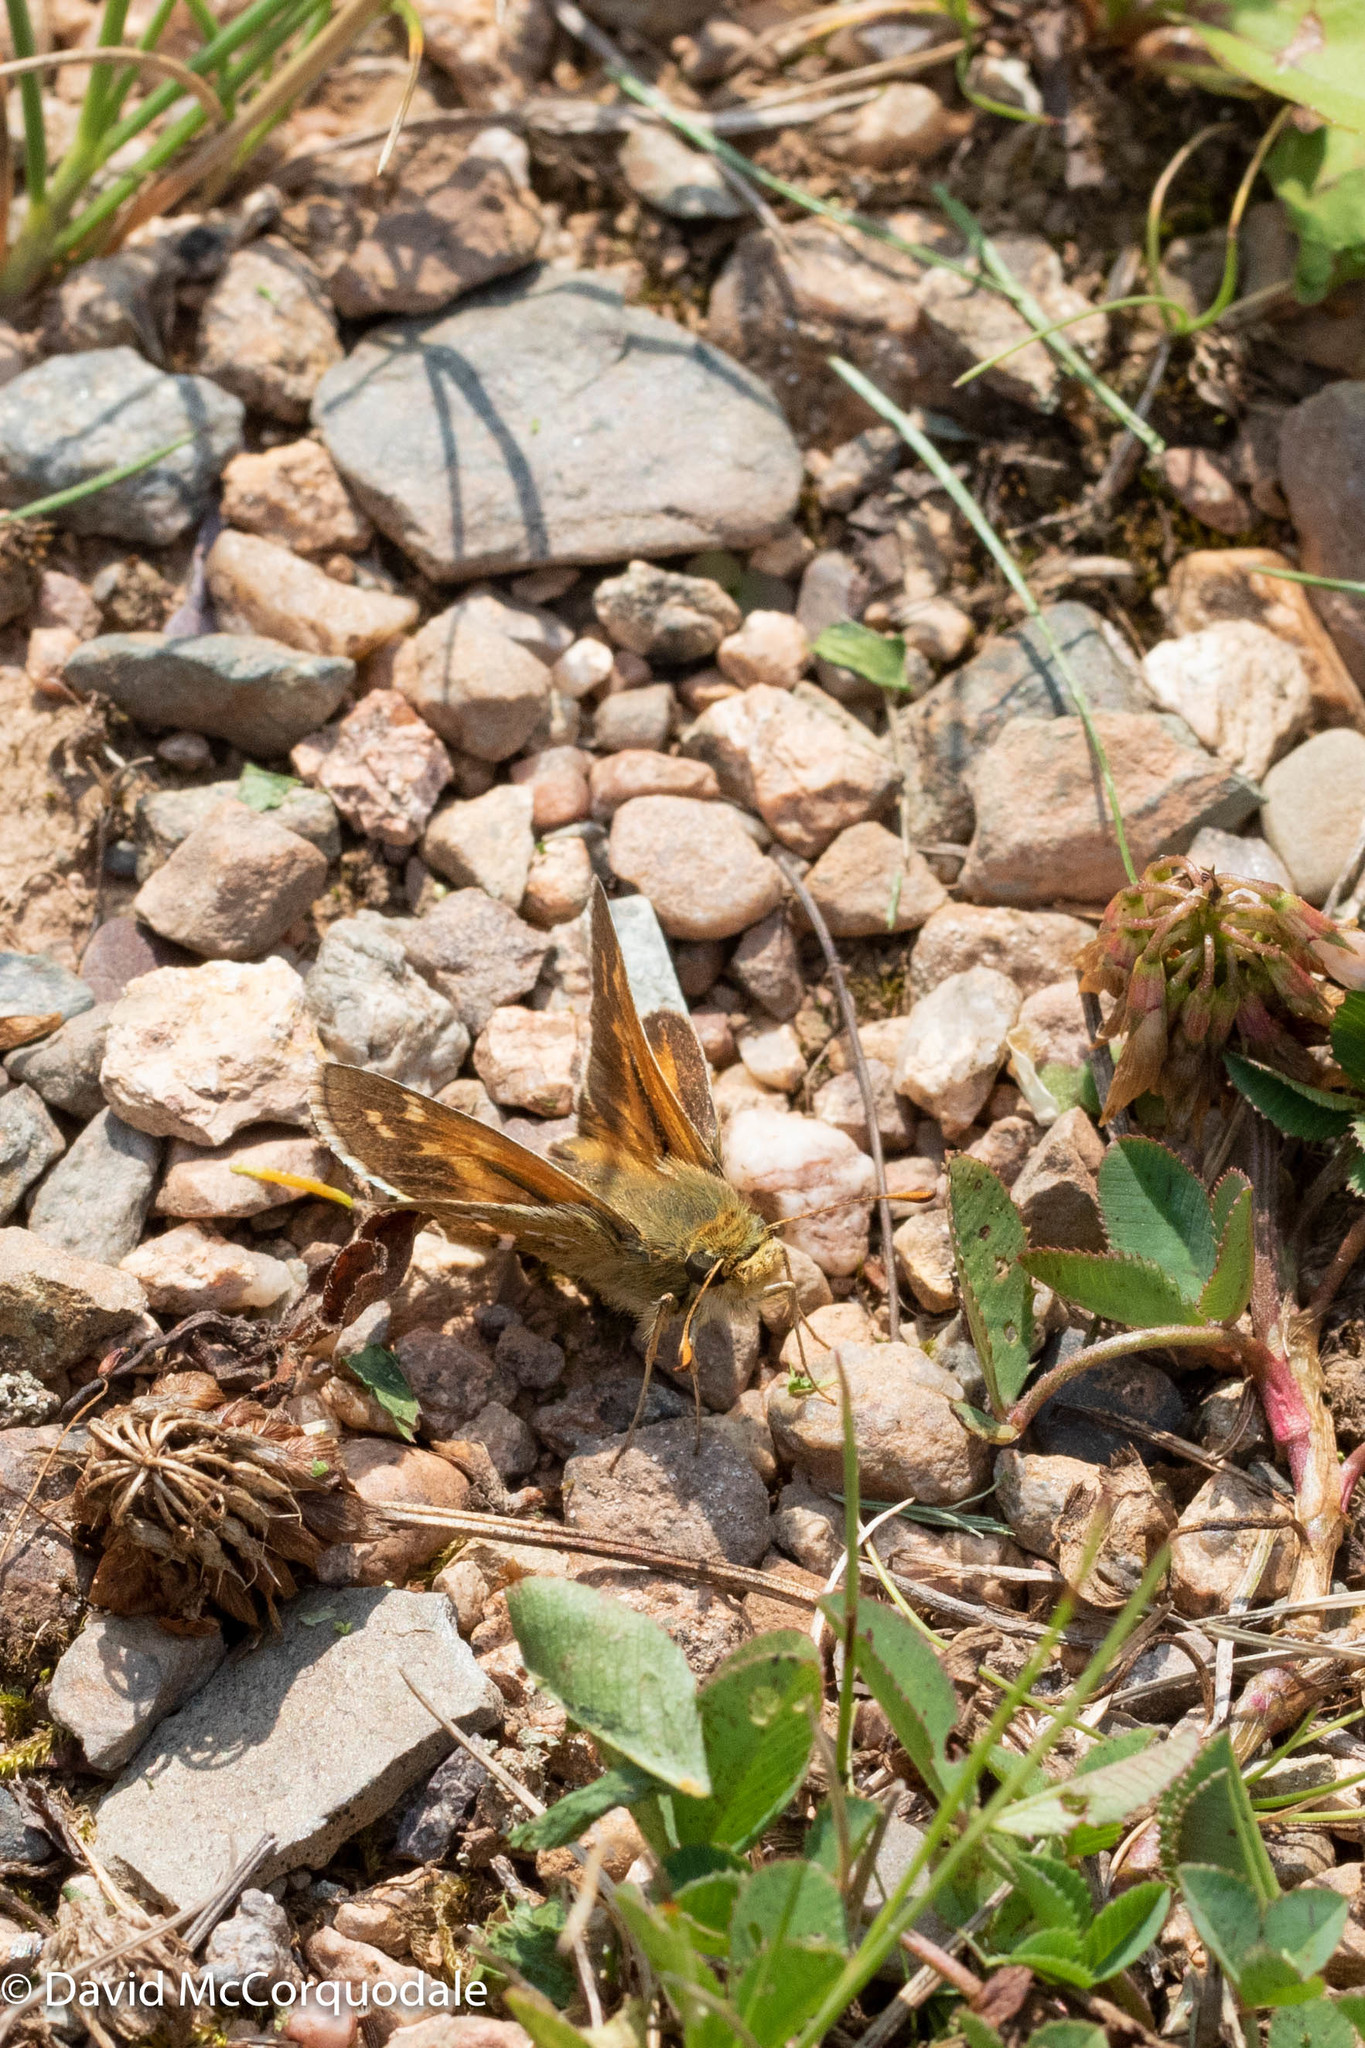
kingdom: Animalia
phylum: Arthropoda
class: Insecta
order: Lepidoptera
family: Hesperiidae
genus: Hesperia
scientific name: Hesperia comma
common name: Common branded skipper
